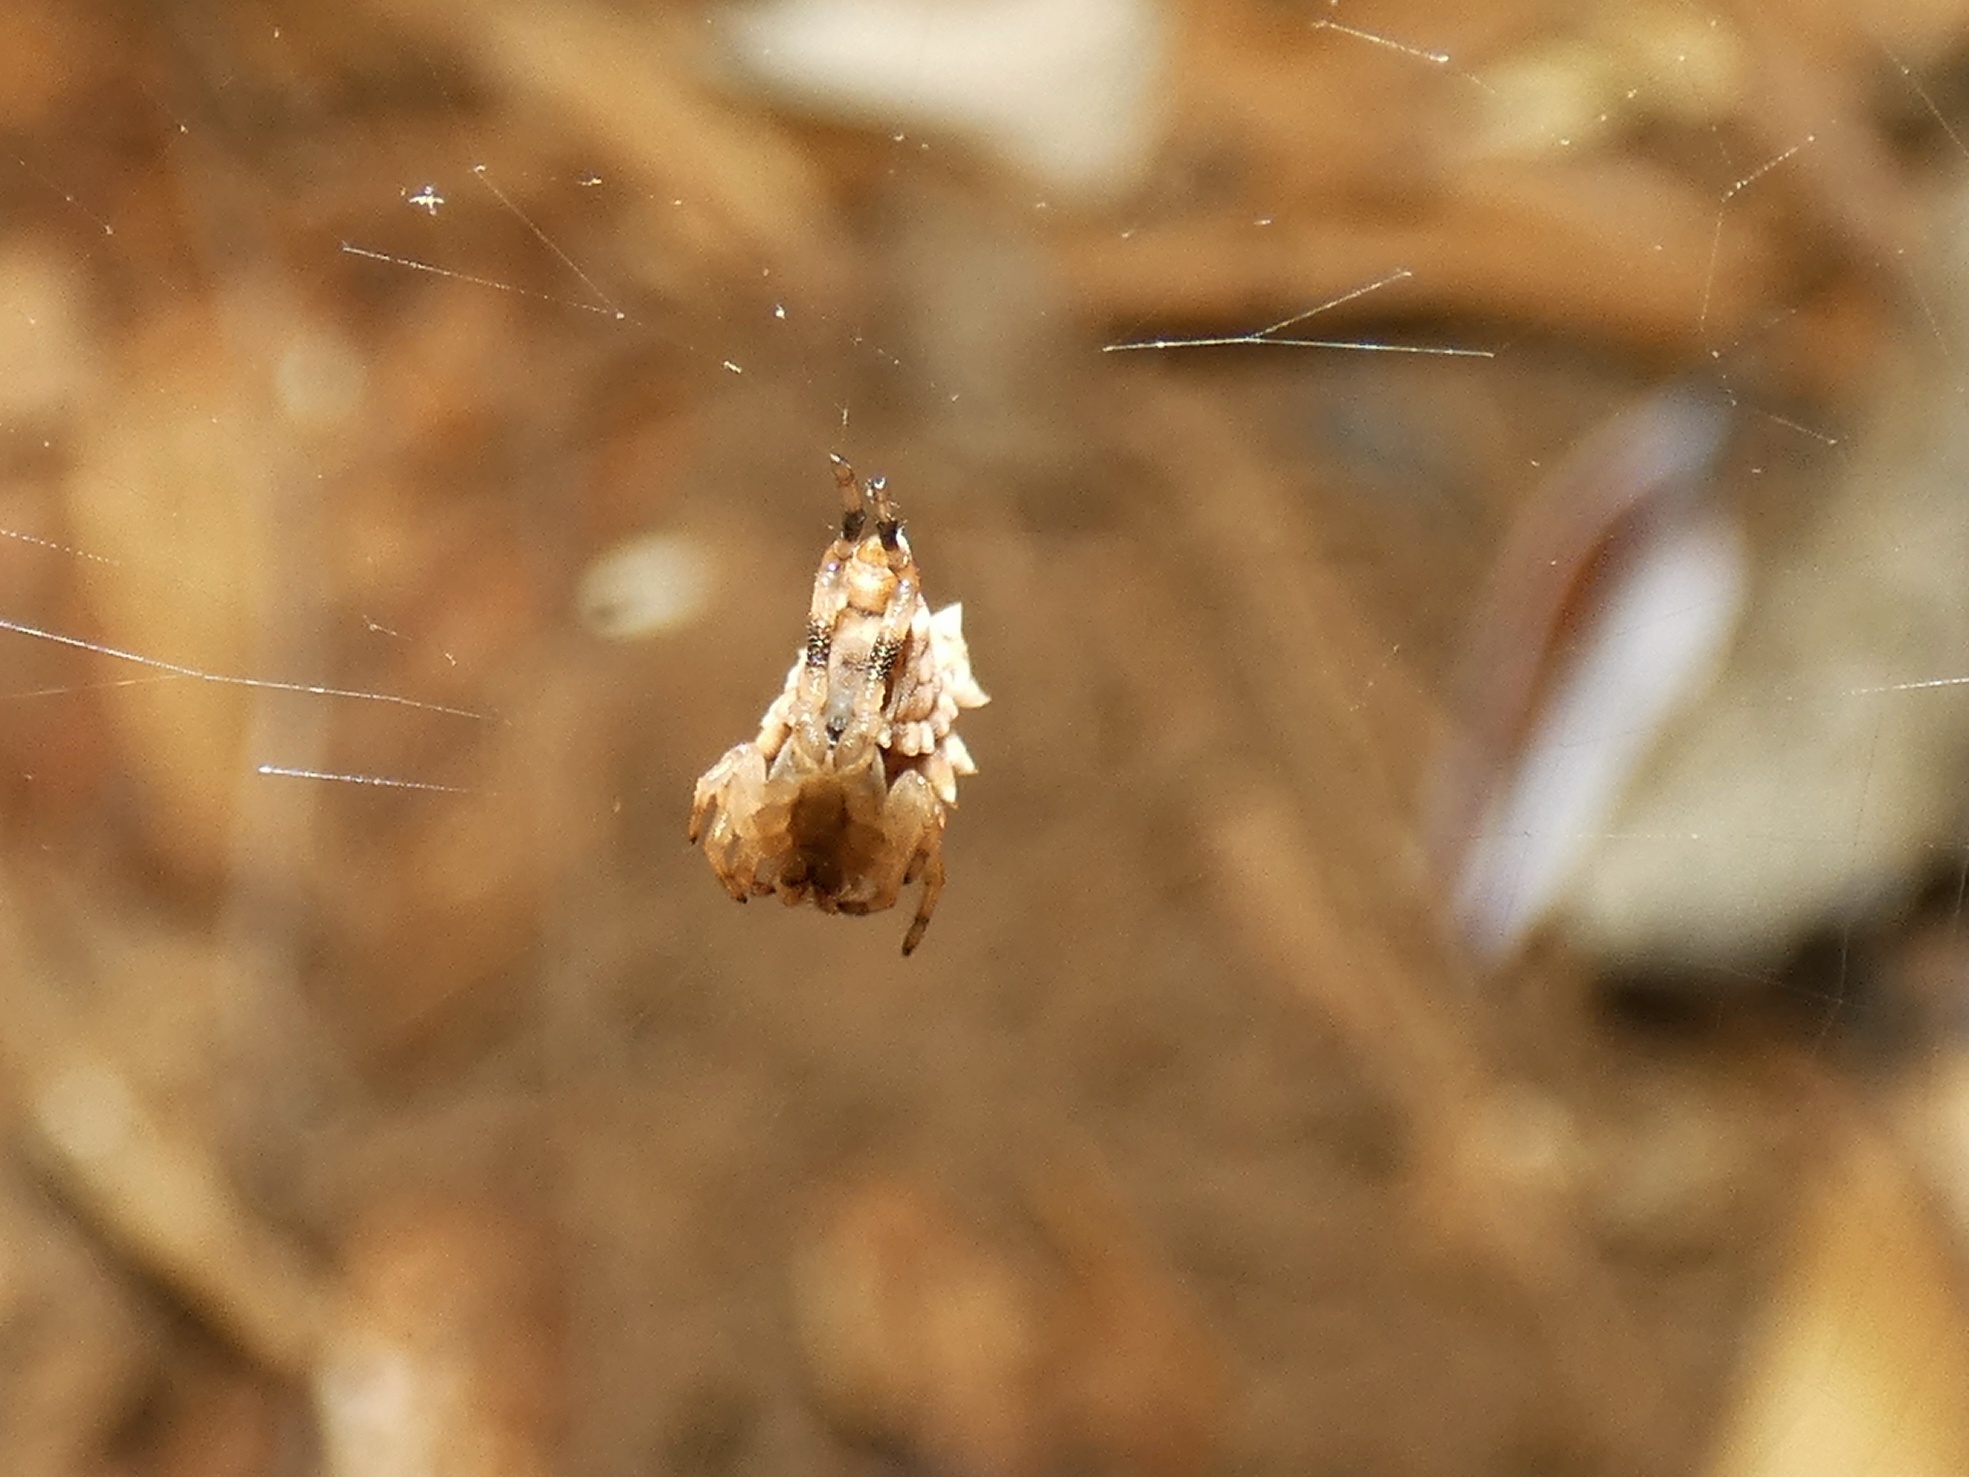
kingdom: Animalia
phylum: Arthropoda
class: Arachnida
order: Araneae
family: Araneidae
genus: Micrathena
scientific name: Micrathena horrida
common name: Orb weavers
